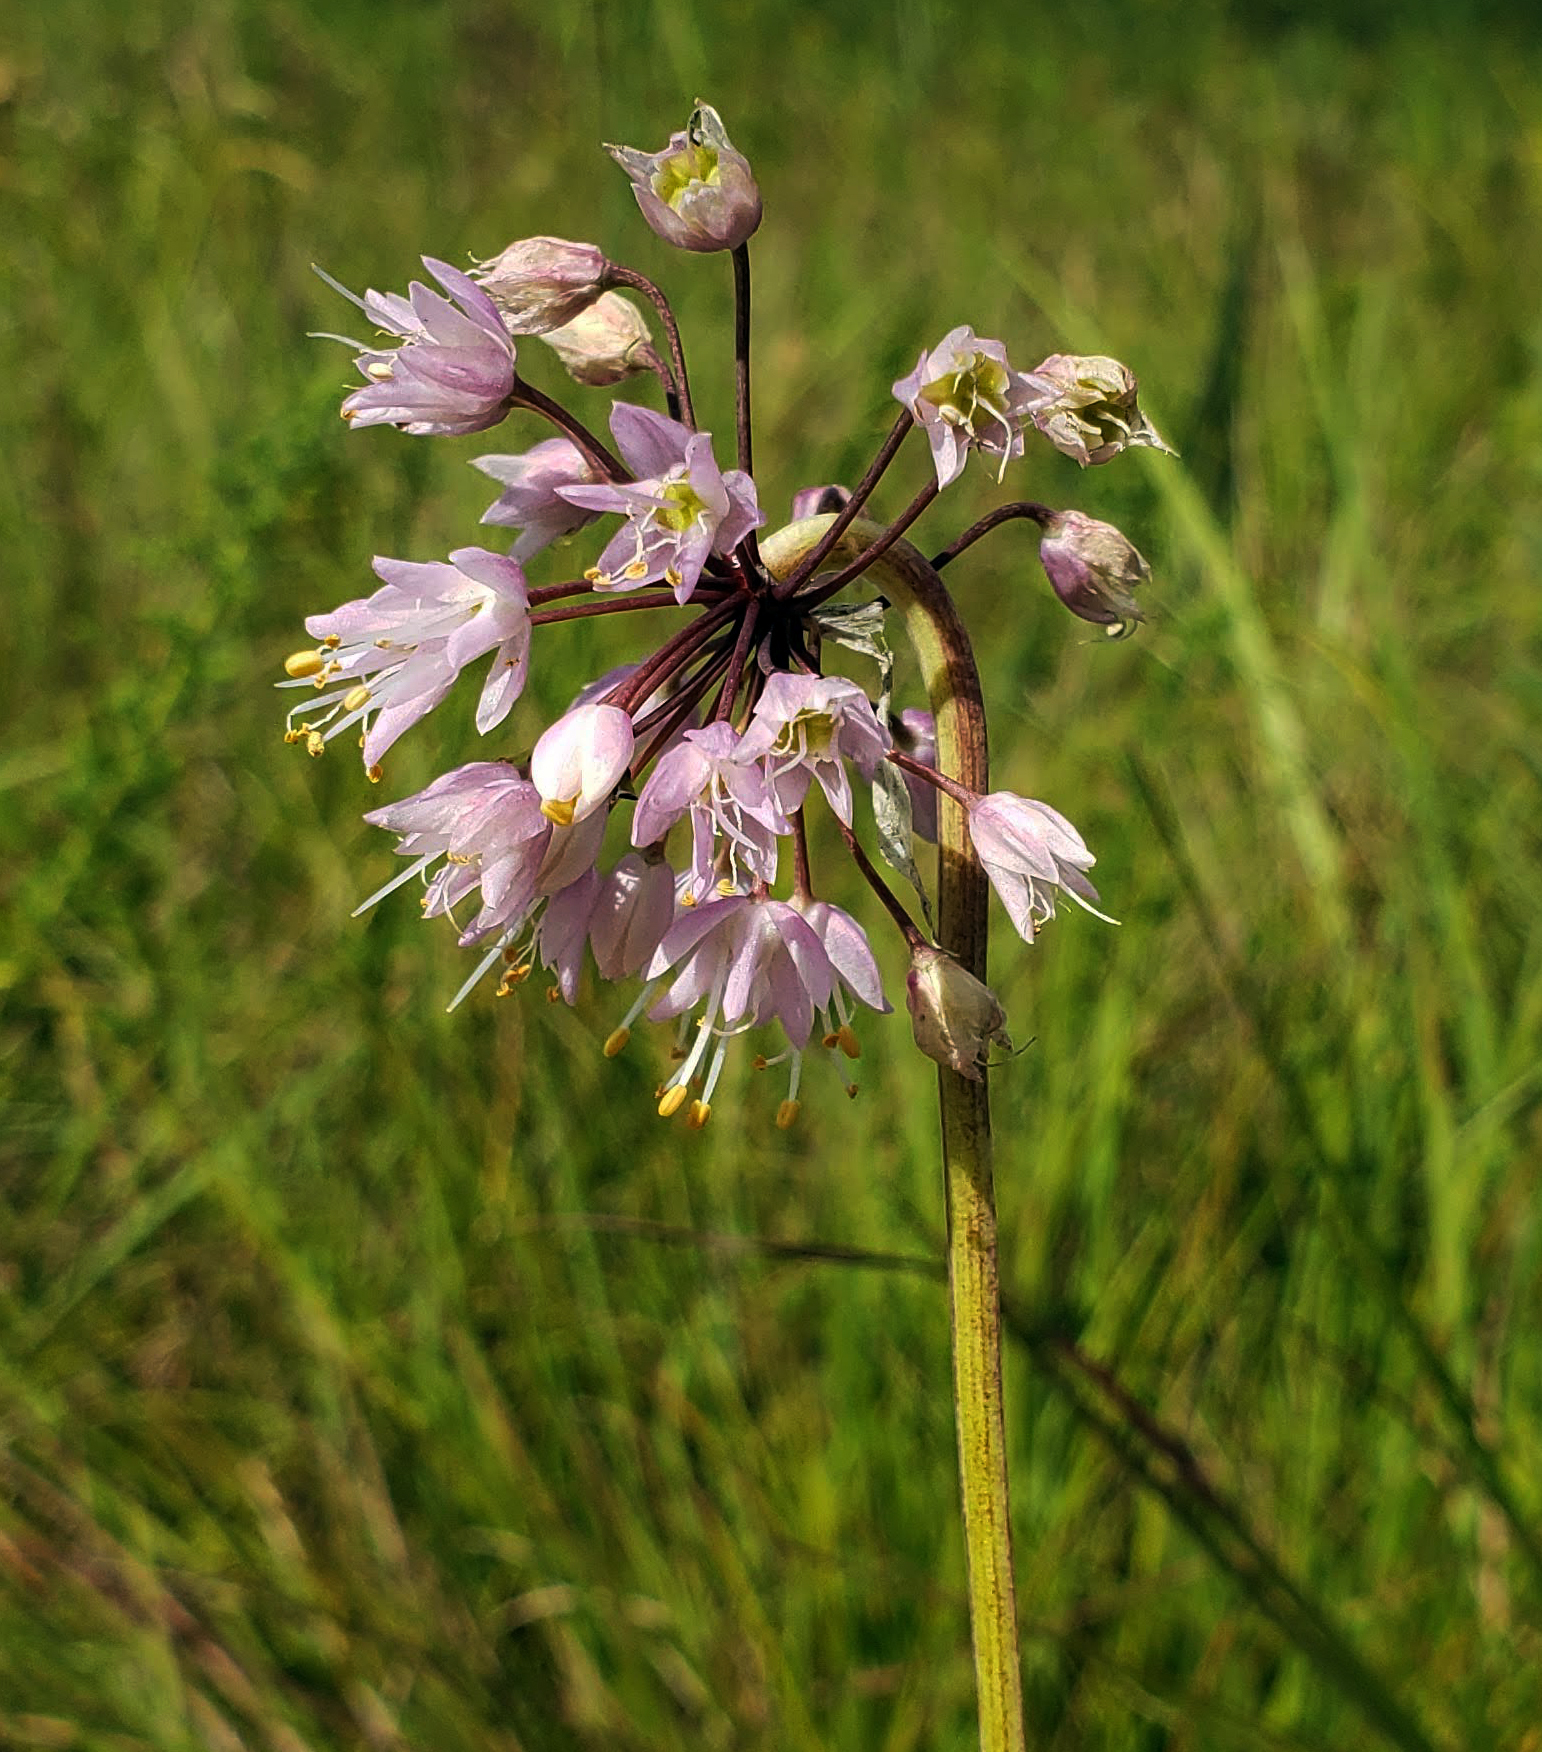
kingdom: Plantae
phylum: Tracheophyta
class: Liliopsida
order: Asparagales
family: Amaryllidaceae
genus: Allium
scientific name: Allium cernuum
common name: Nodding onion
